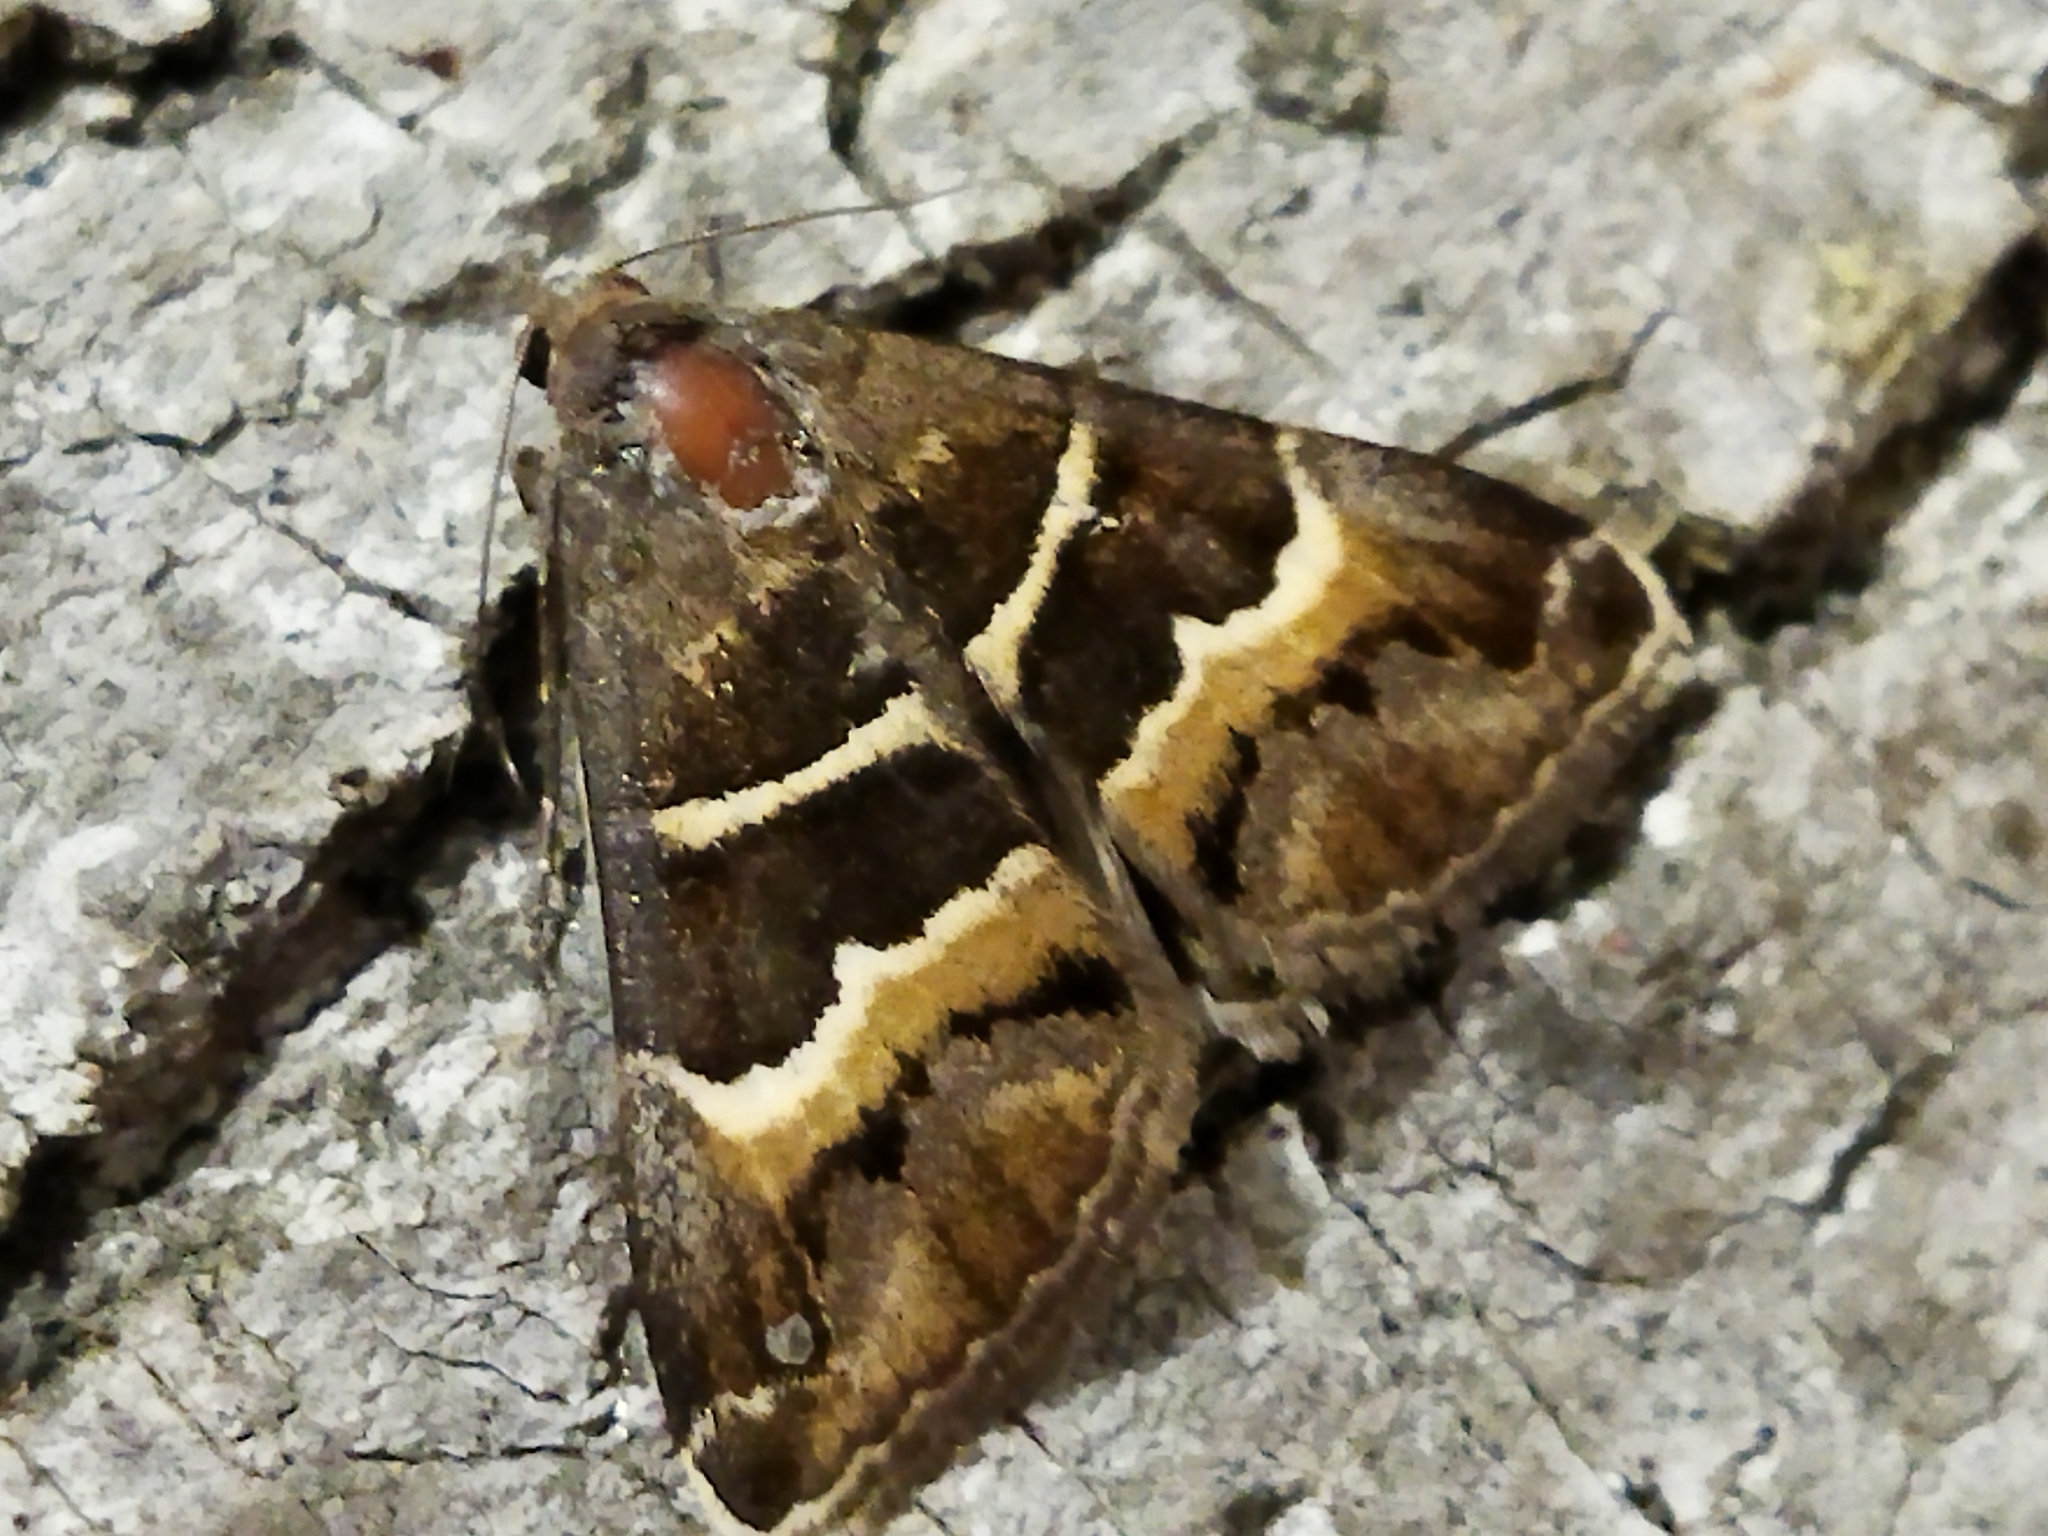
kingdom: Animalia
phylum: Arthropoda
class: Insecta
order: Lepidoptera
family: Erebidae
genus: Grammodes
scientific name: Grammodes stolida
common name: Geometrician
